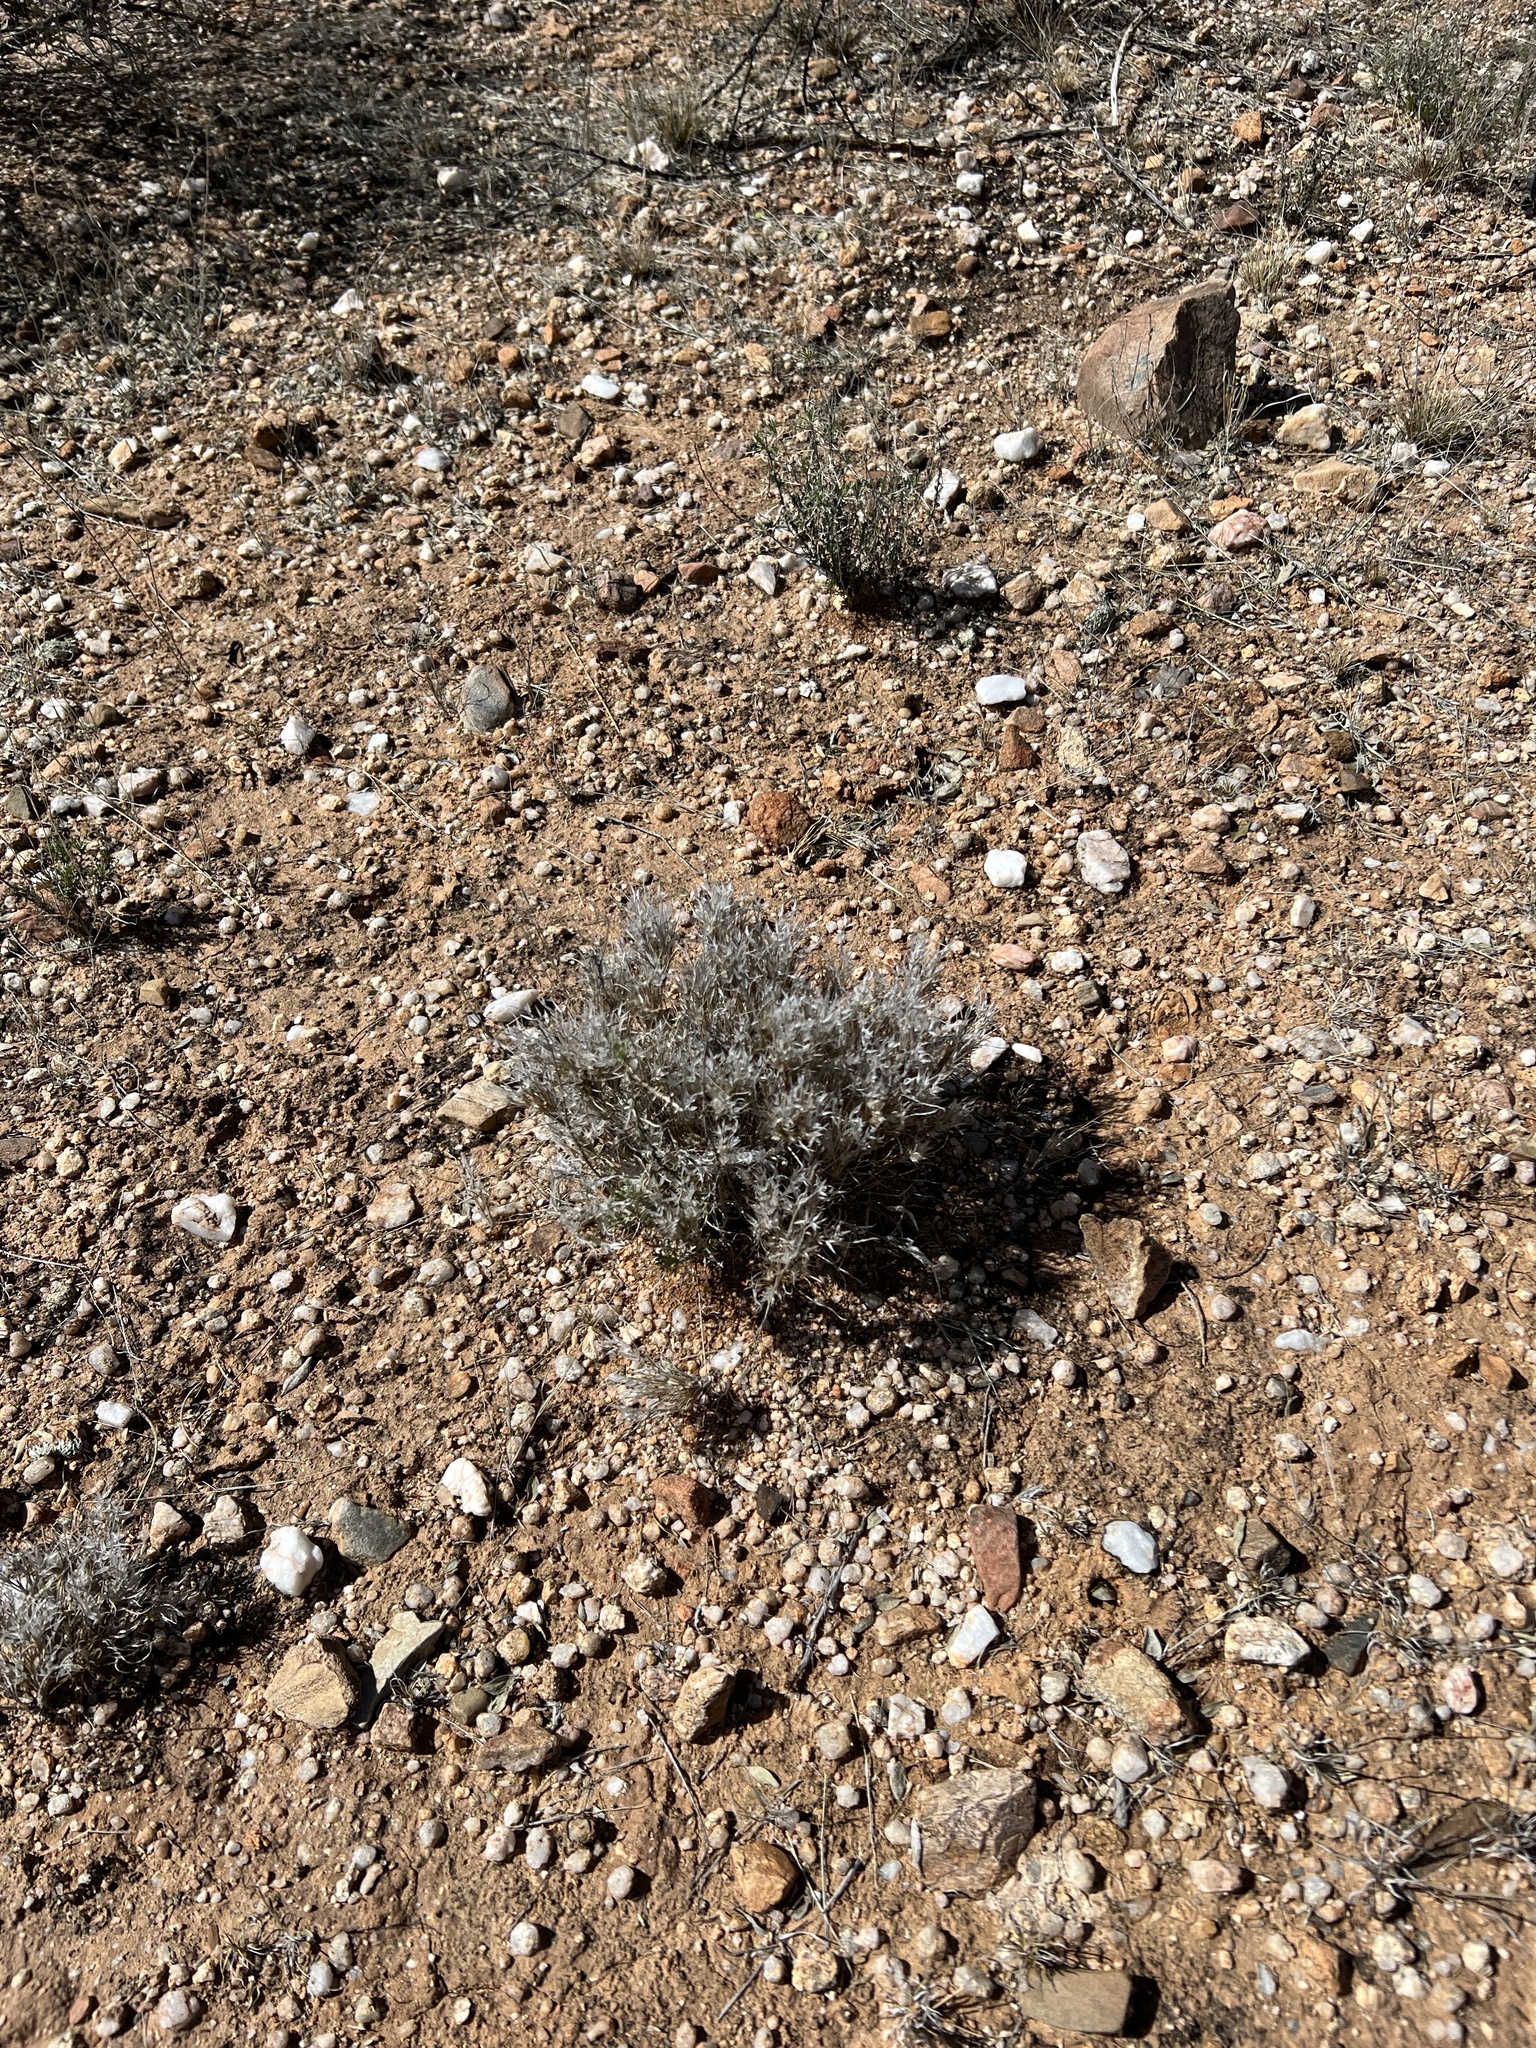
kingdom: Plantae
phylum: Tracheophyta
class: Liliopsida
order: Poales
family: Poaceae
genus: Dasyochloa
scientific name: Dasyochloa pulchella
